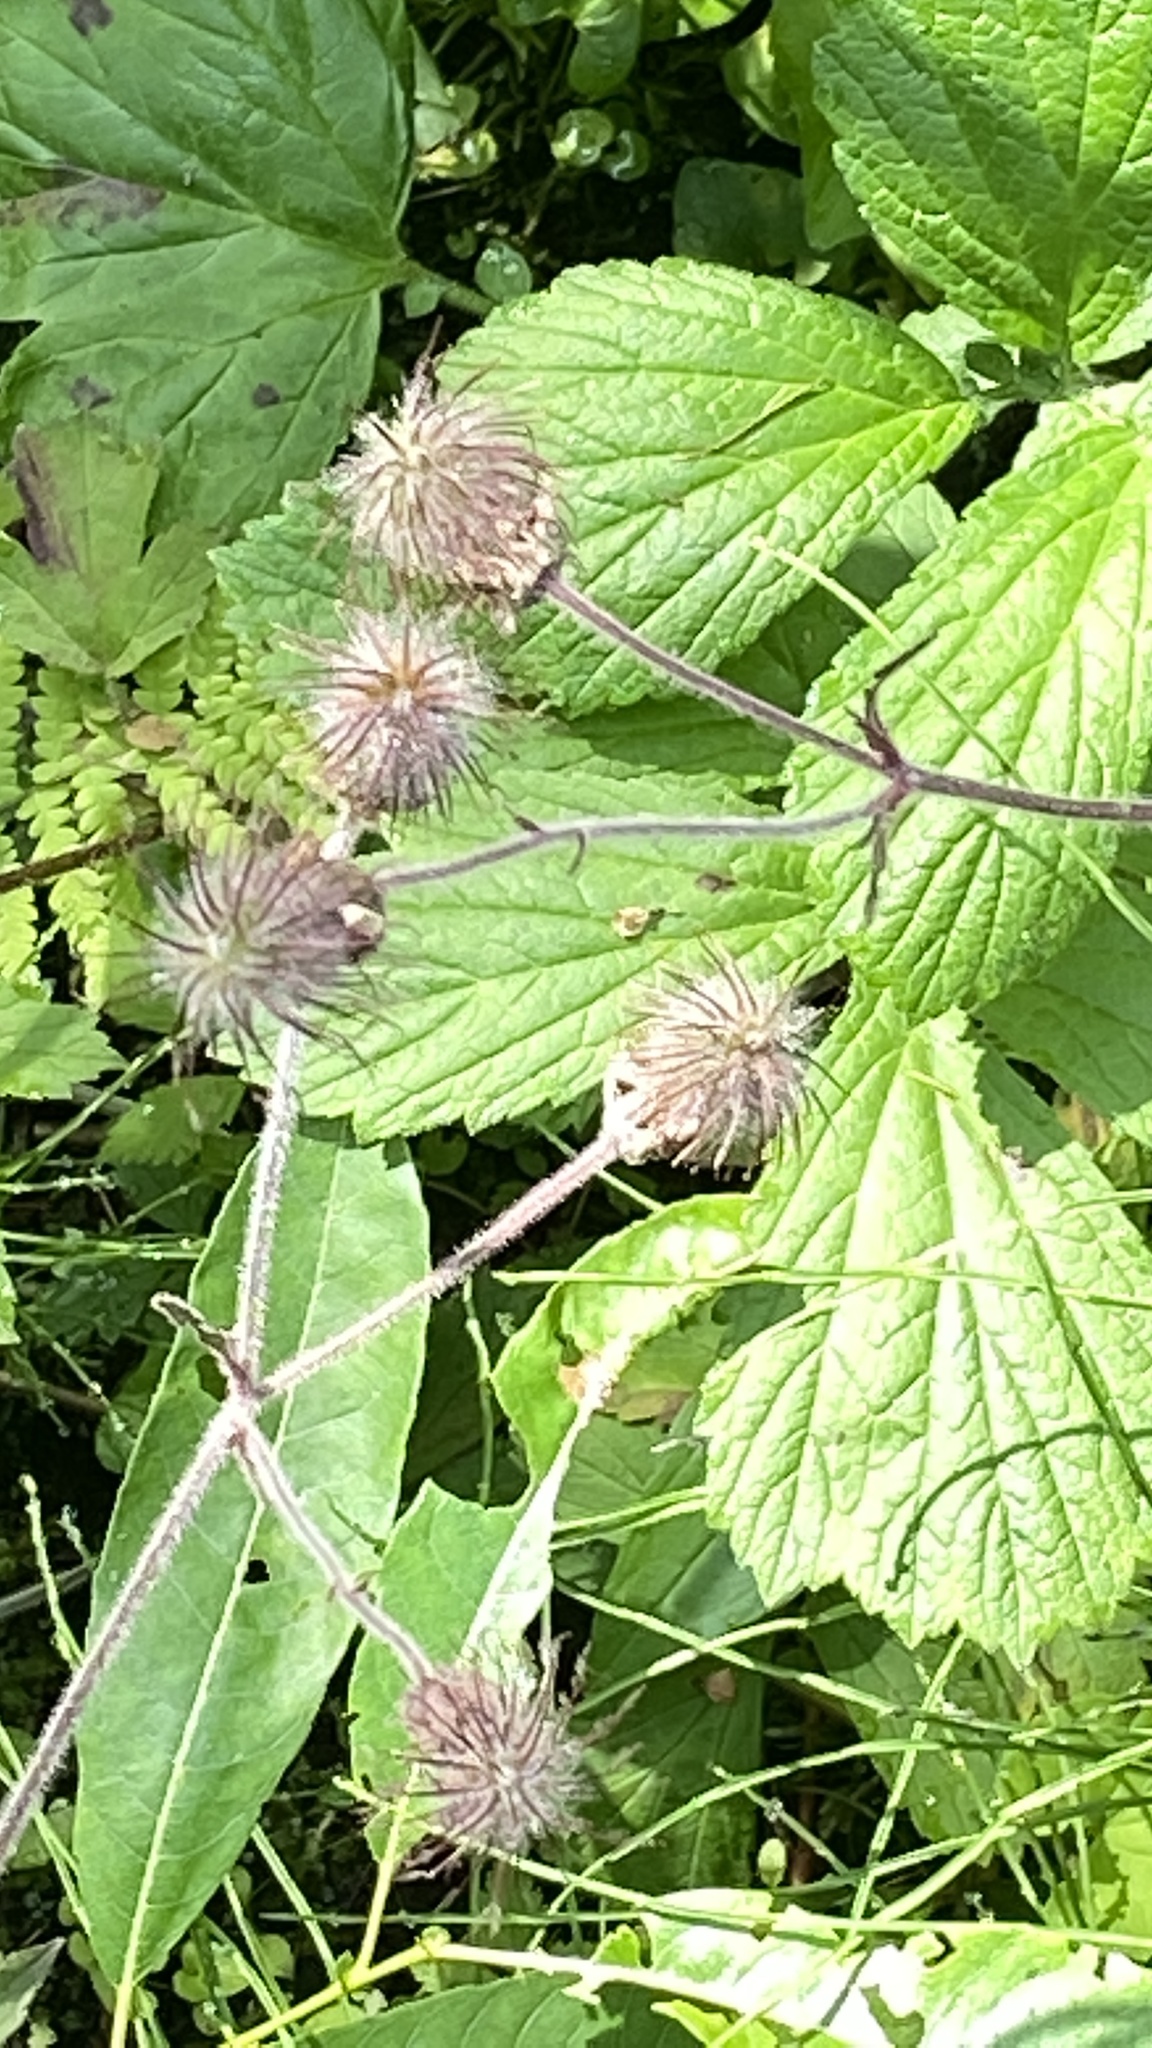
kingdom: Plantae
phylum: Tracheophyta
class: Magnoliopsida
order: Rosales
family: Rosaceae
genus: Geum
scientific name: Geum rivale
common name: Water avens
